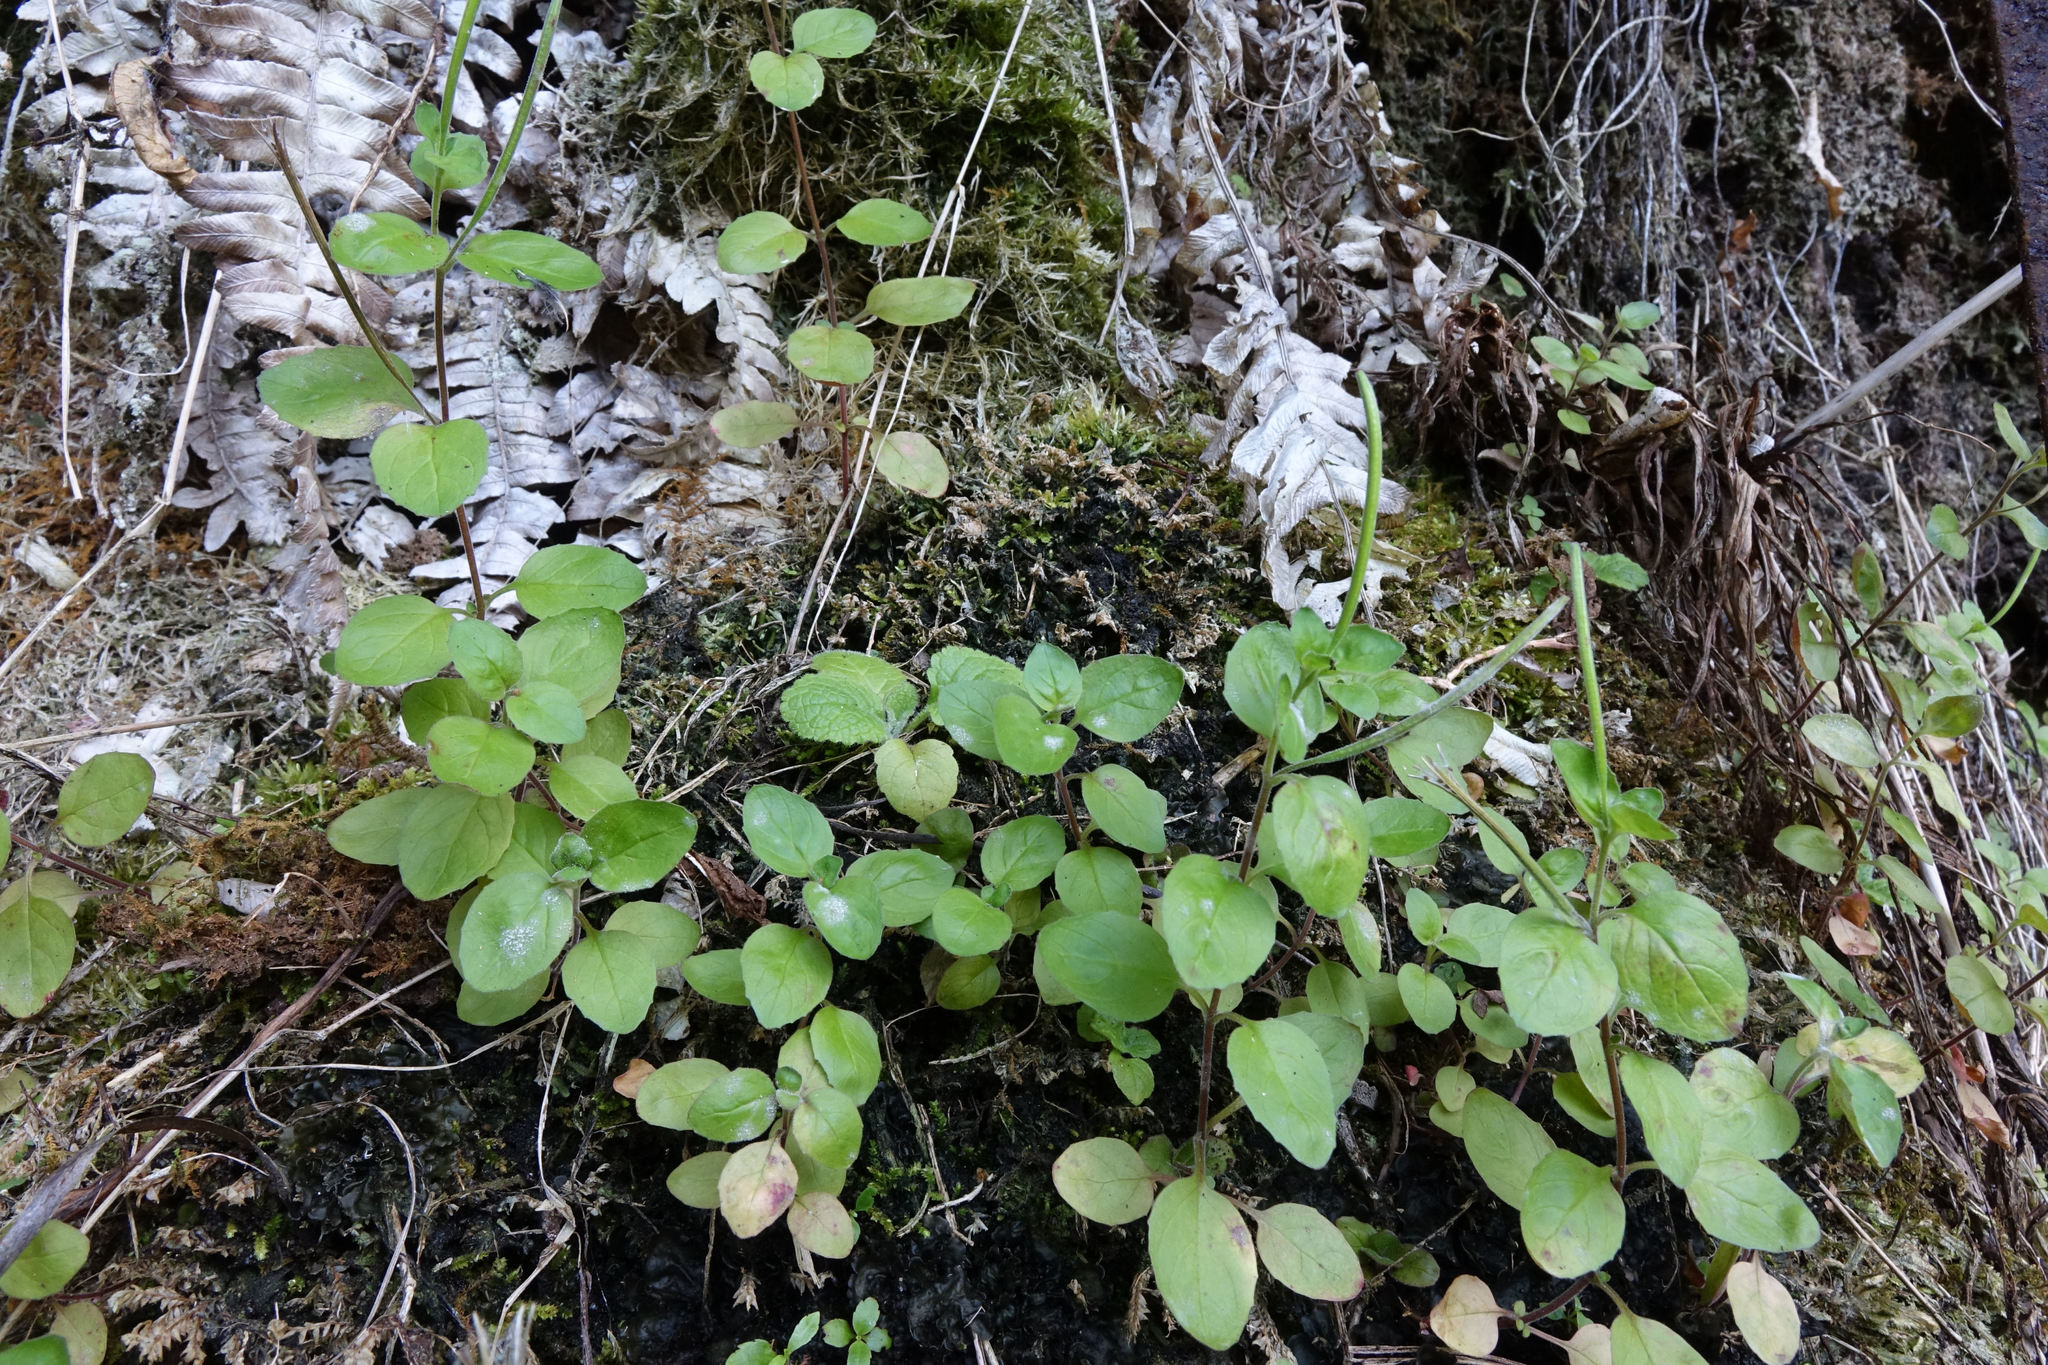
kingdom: Plantae
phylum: Tracheophyta
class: Magnoliopsida
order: Myrtales
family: Onagraceae
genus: Epilobium
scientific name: Epilobium pubens
